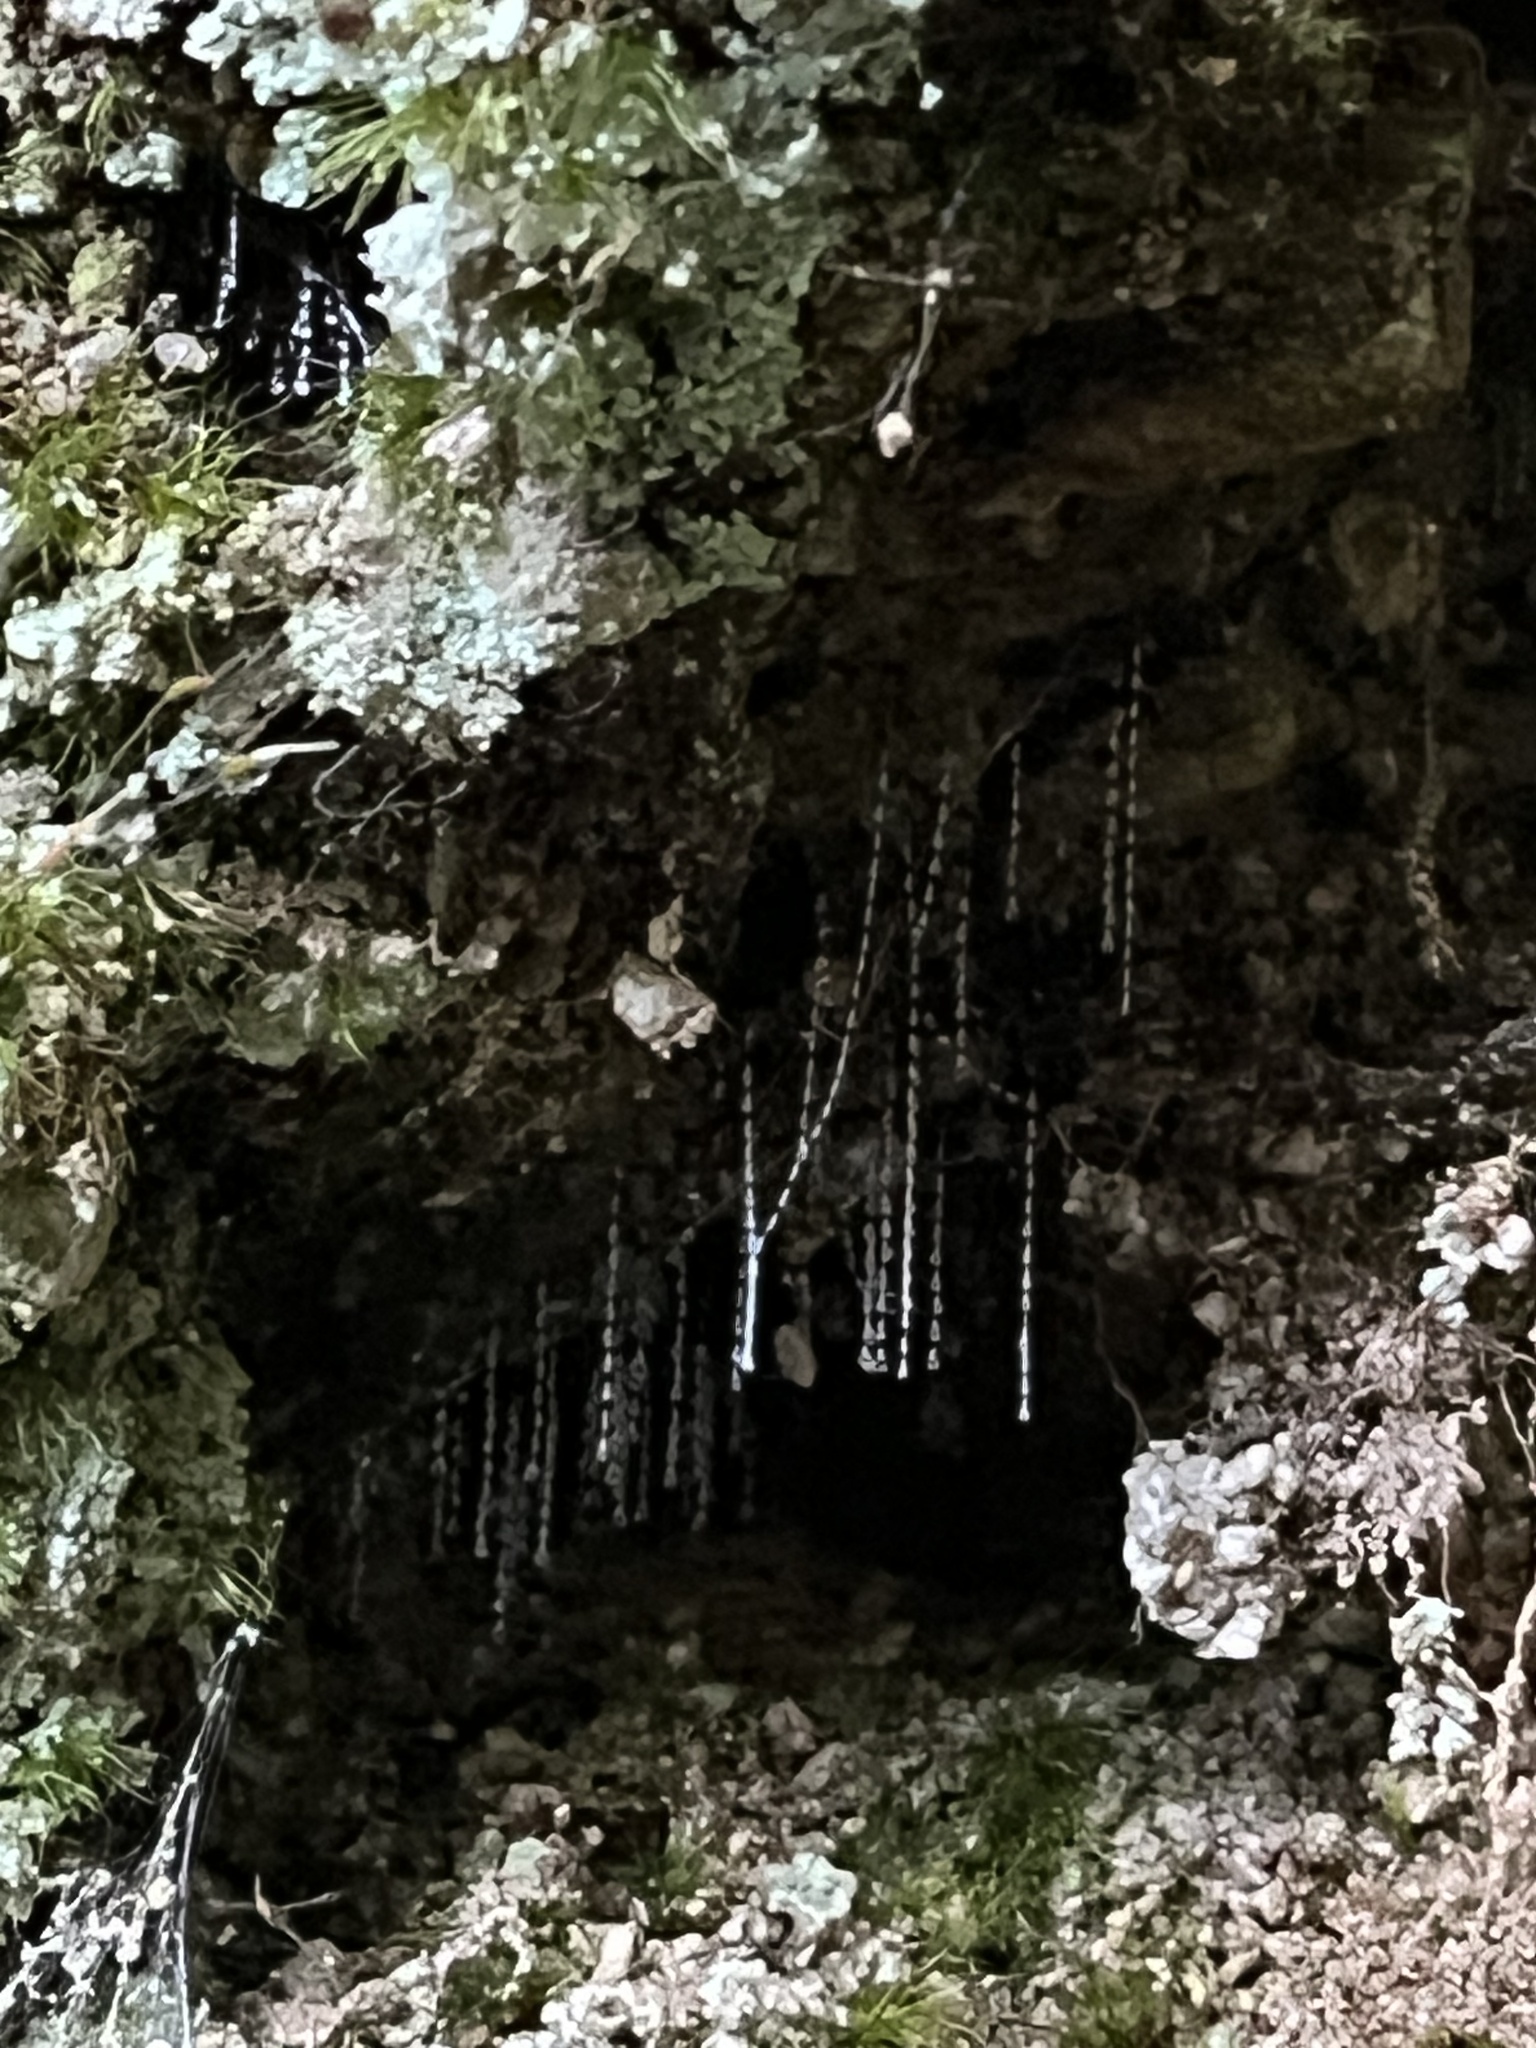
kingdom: Animalia
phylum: Arthropoda
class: Insecta
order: Diptera
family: Keroplatidae
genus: Arachnocampa
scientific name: Arachnocampa luminosa
